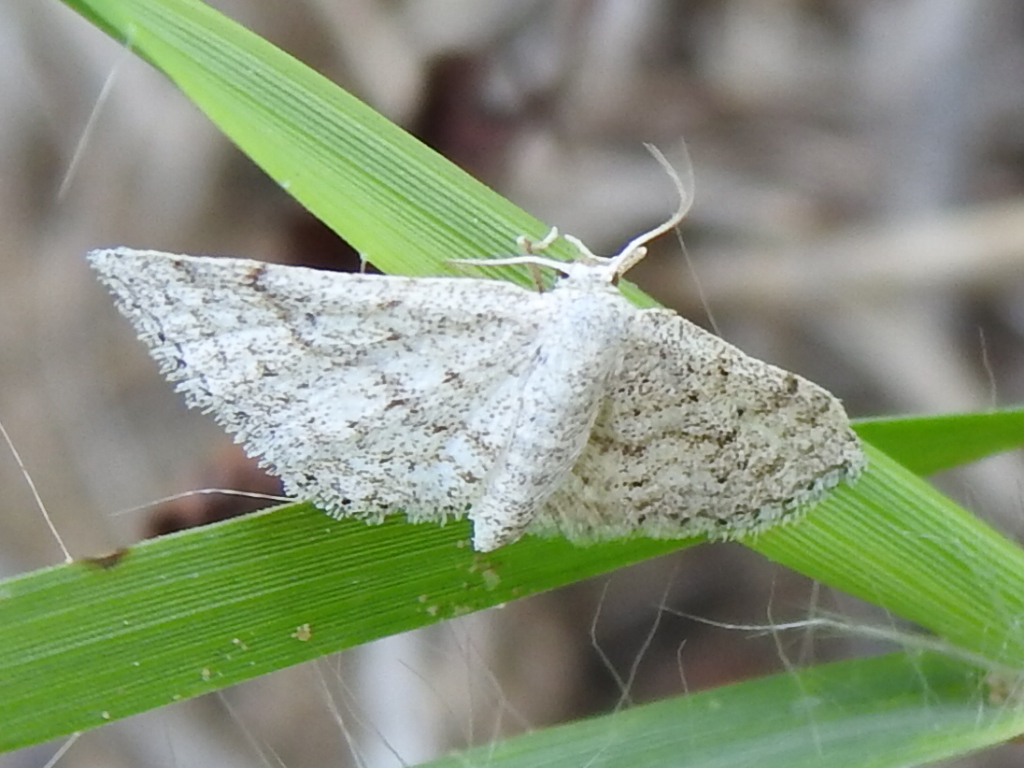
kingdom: Animalia
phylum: Arthropoda
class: Insecta
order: Lepidoptera
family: Geometridae
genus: Lobocleta
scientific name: Lobocleta ossularia
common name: Drab brown wave
